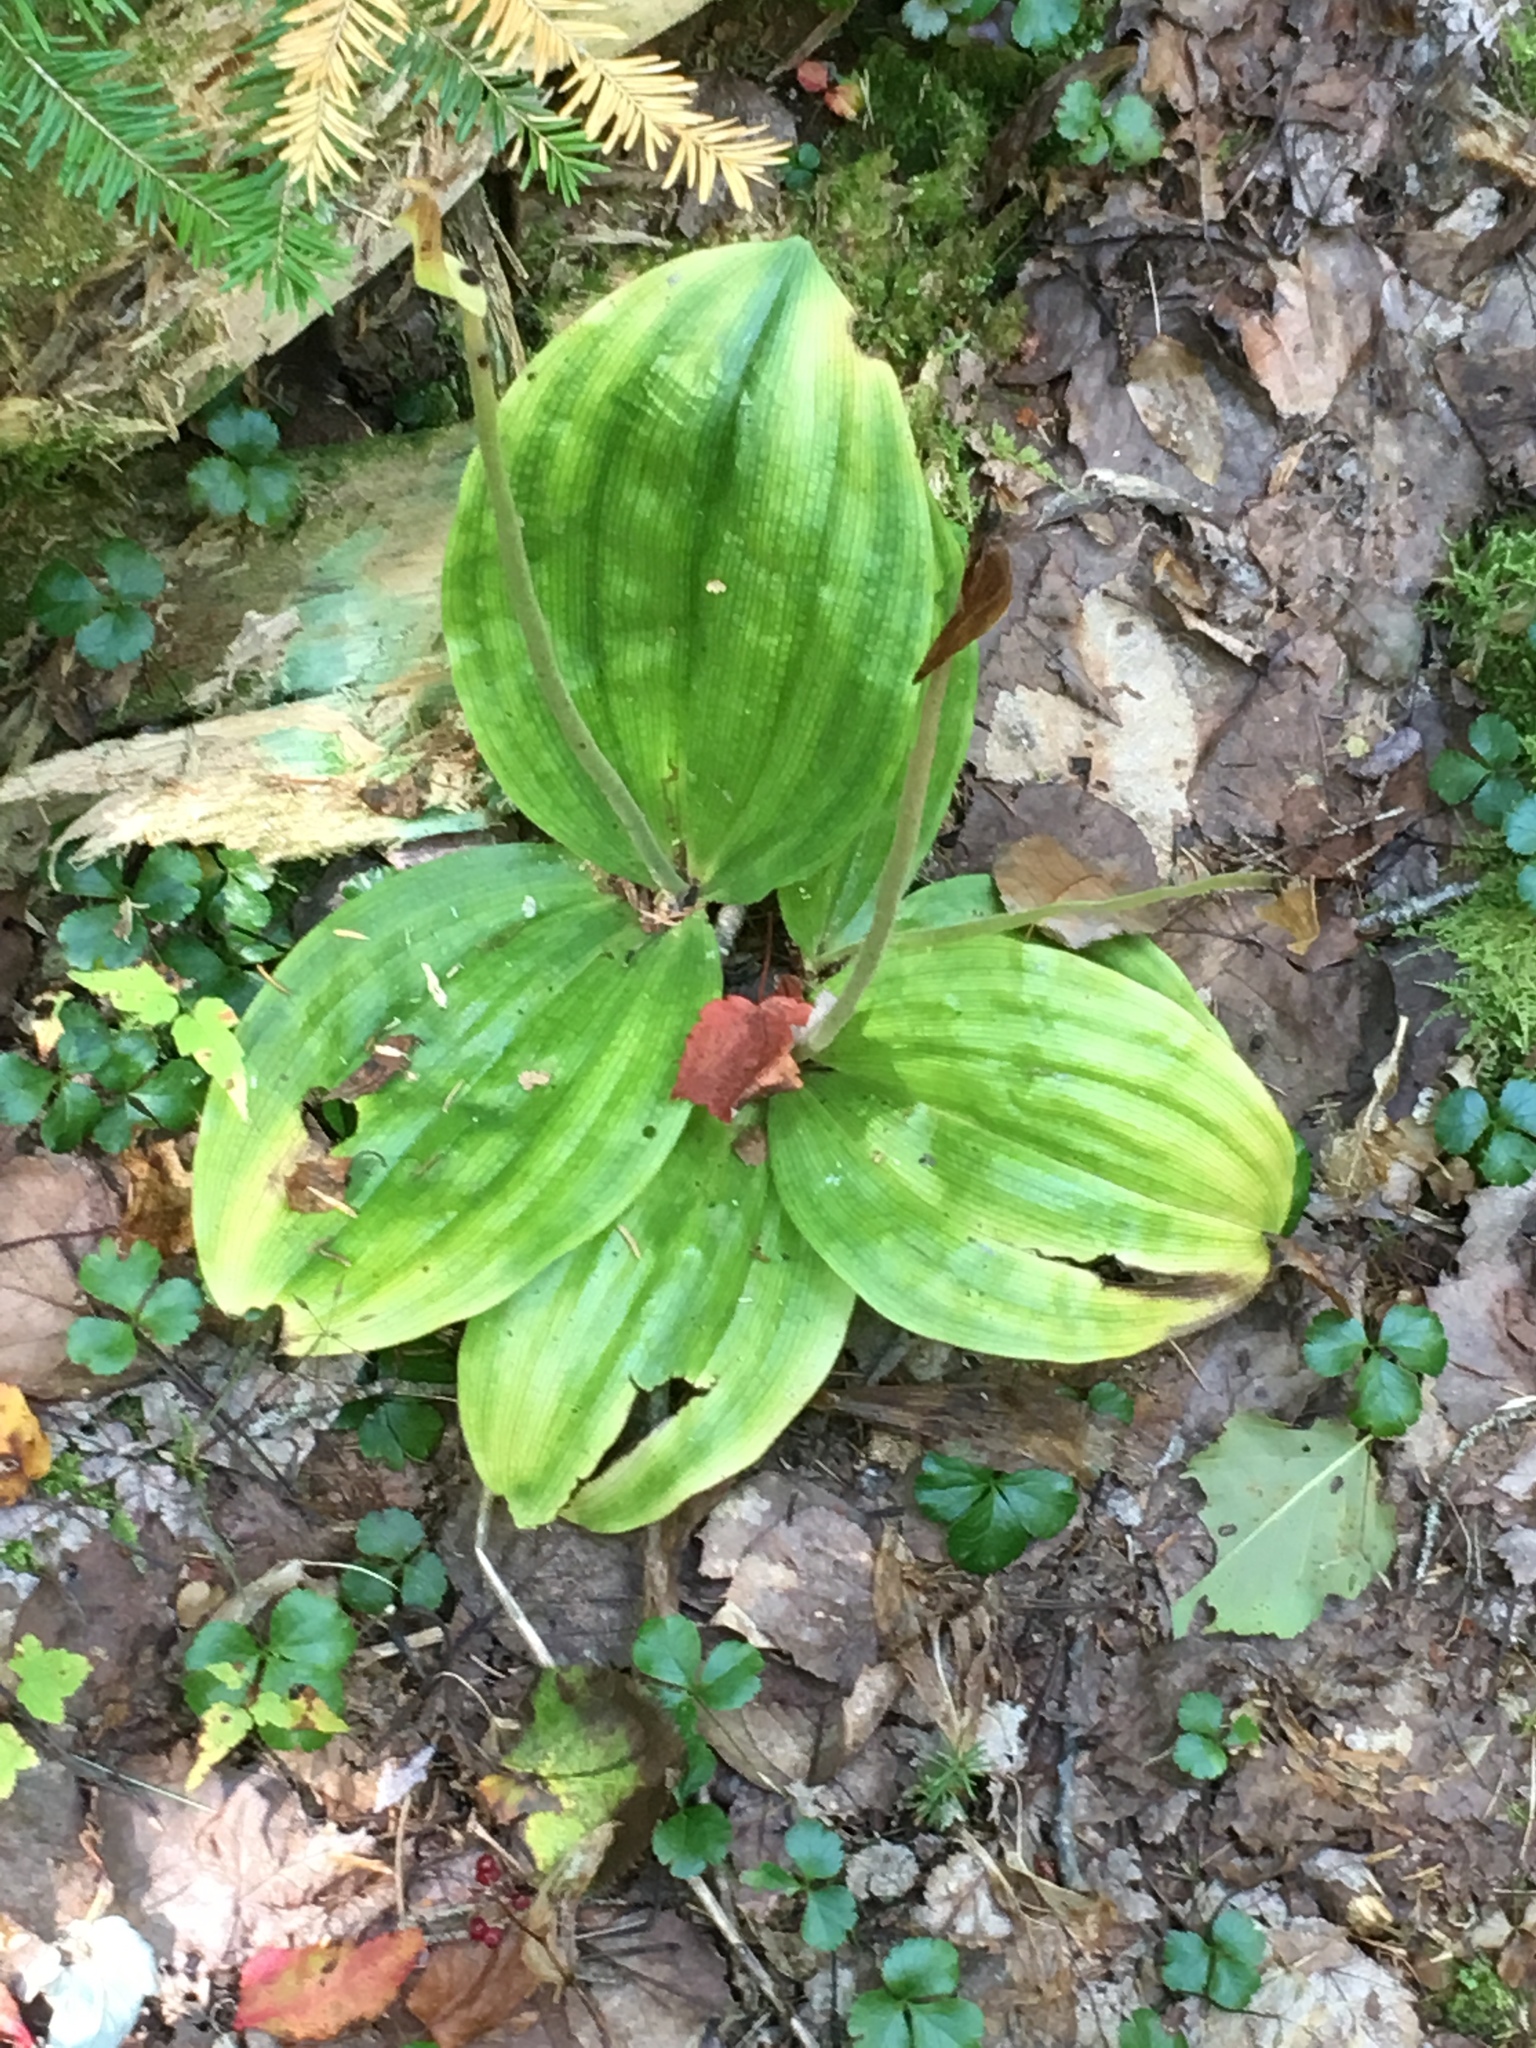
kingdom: Plantae
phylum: Tracheophyta
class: Liliopsida
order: Asparagales
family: Orchidaceae
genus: Cypripedium
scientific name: Cypripedium acaule
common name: Pink lady's-slipper
